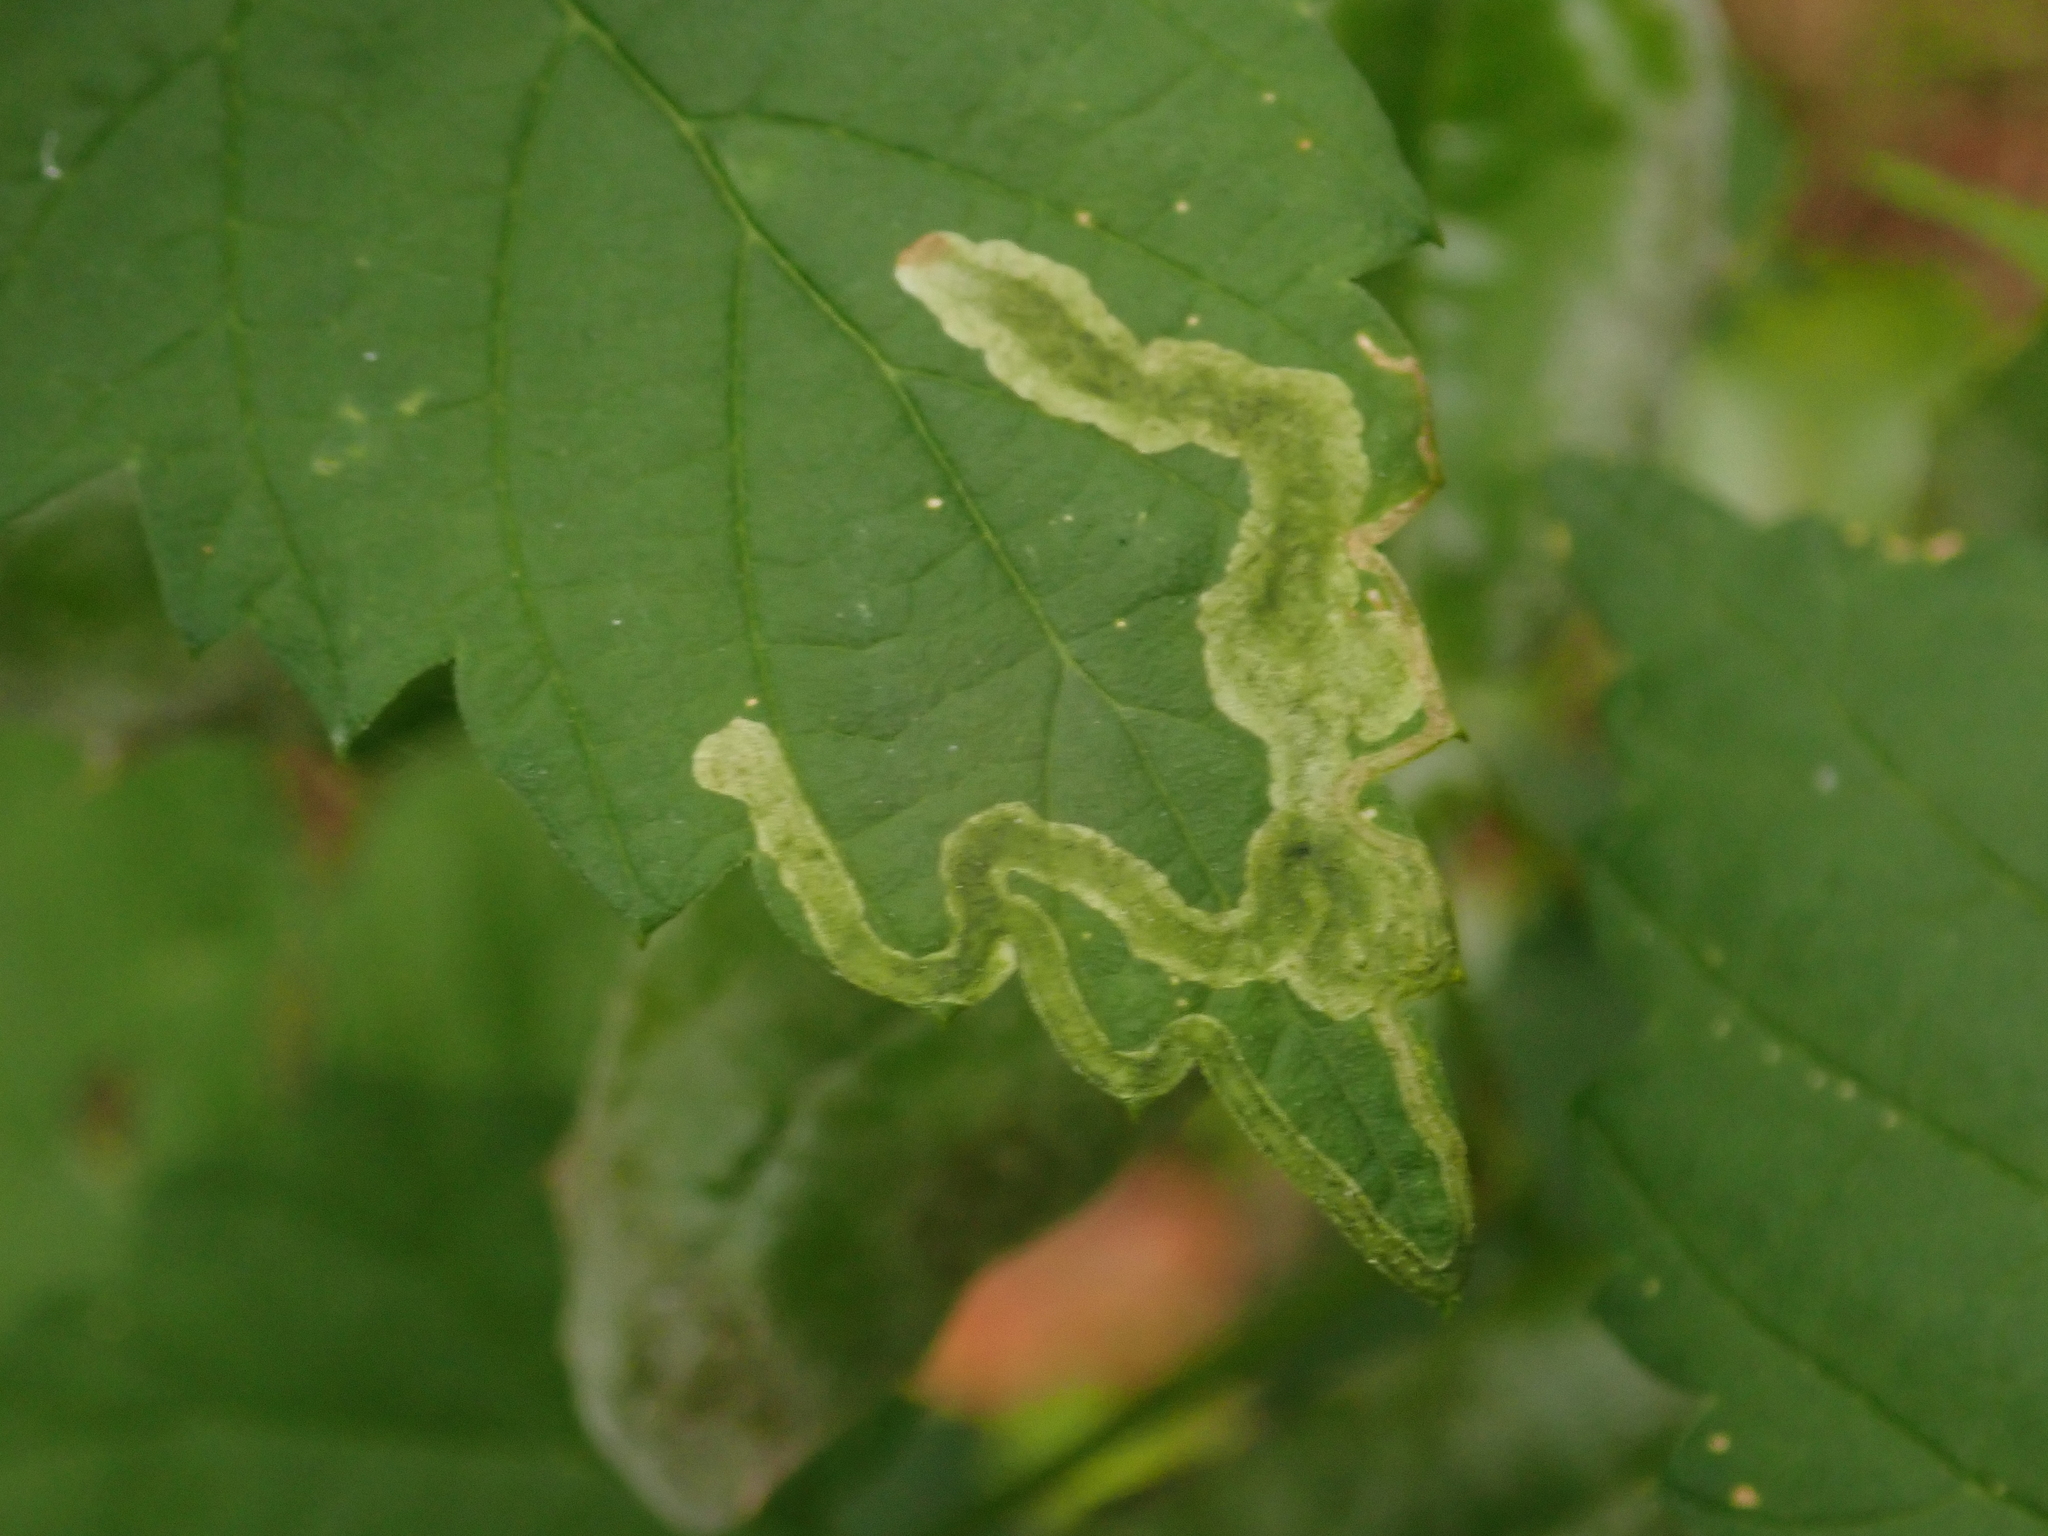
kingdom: Animalia
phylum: Arthropoda
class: Insecta
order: Diptera
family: Agromyzidae
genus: Agromyza
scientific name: Agromyza flaviceps
